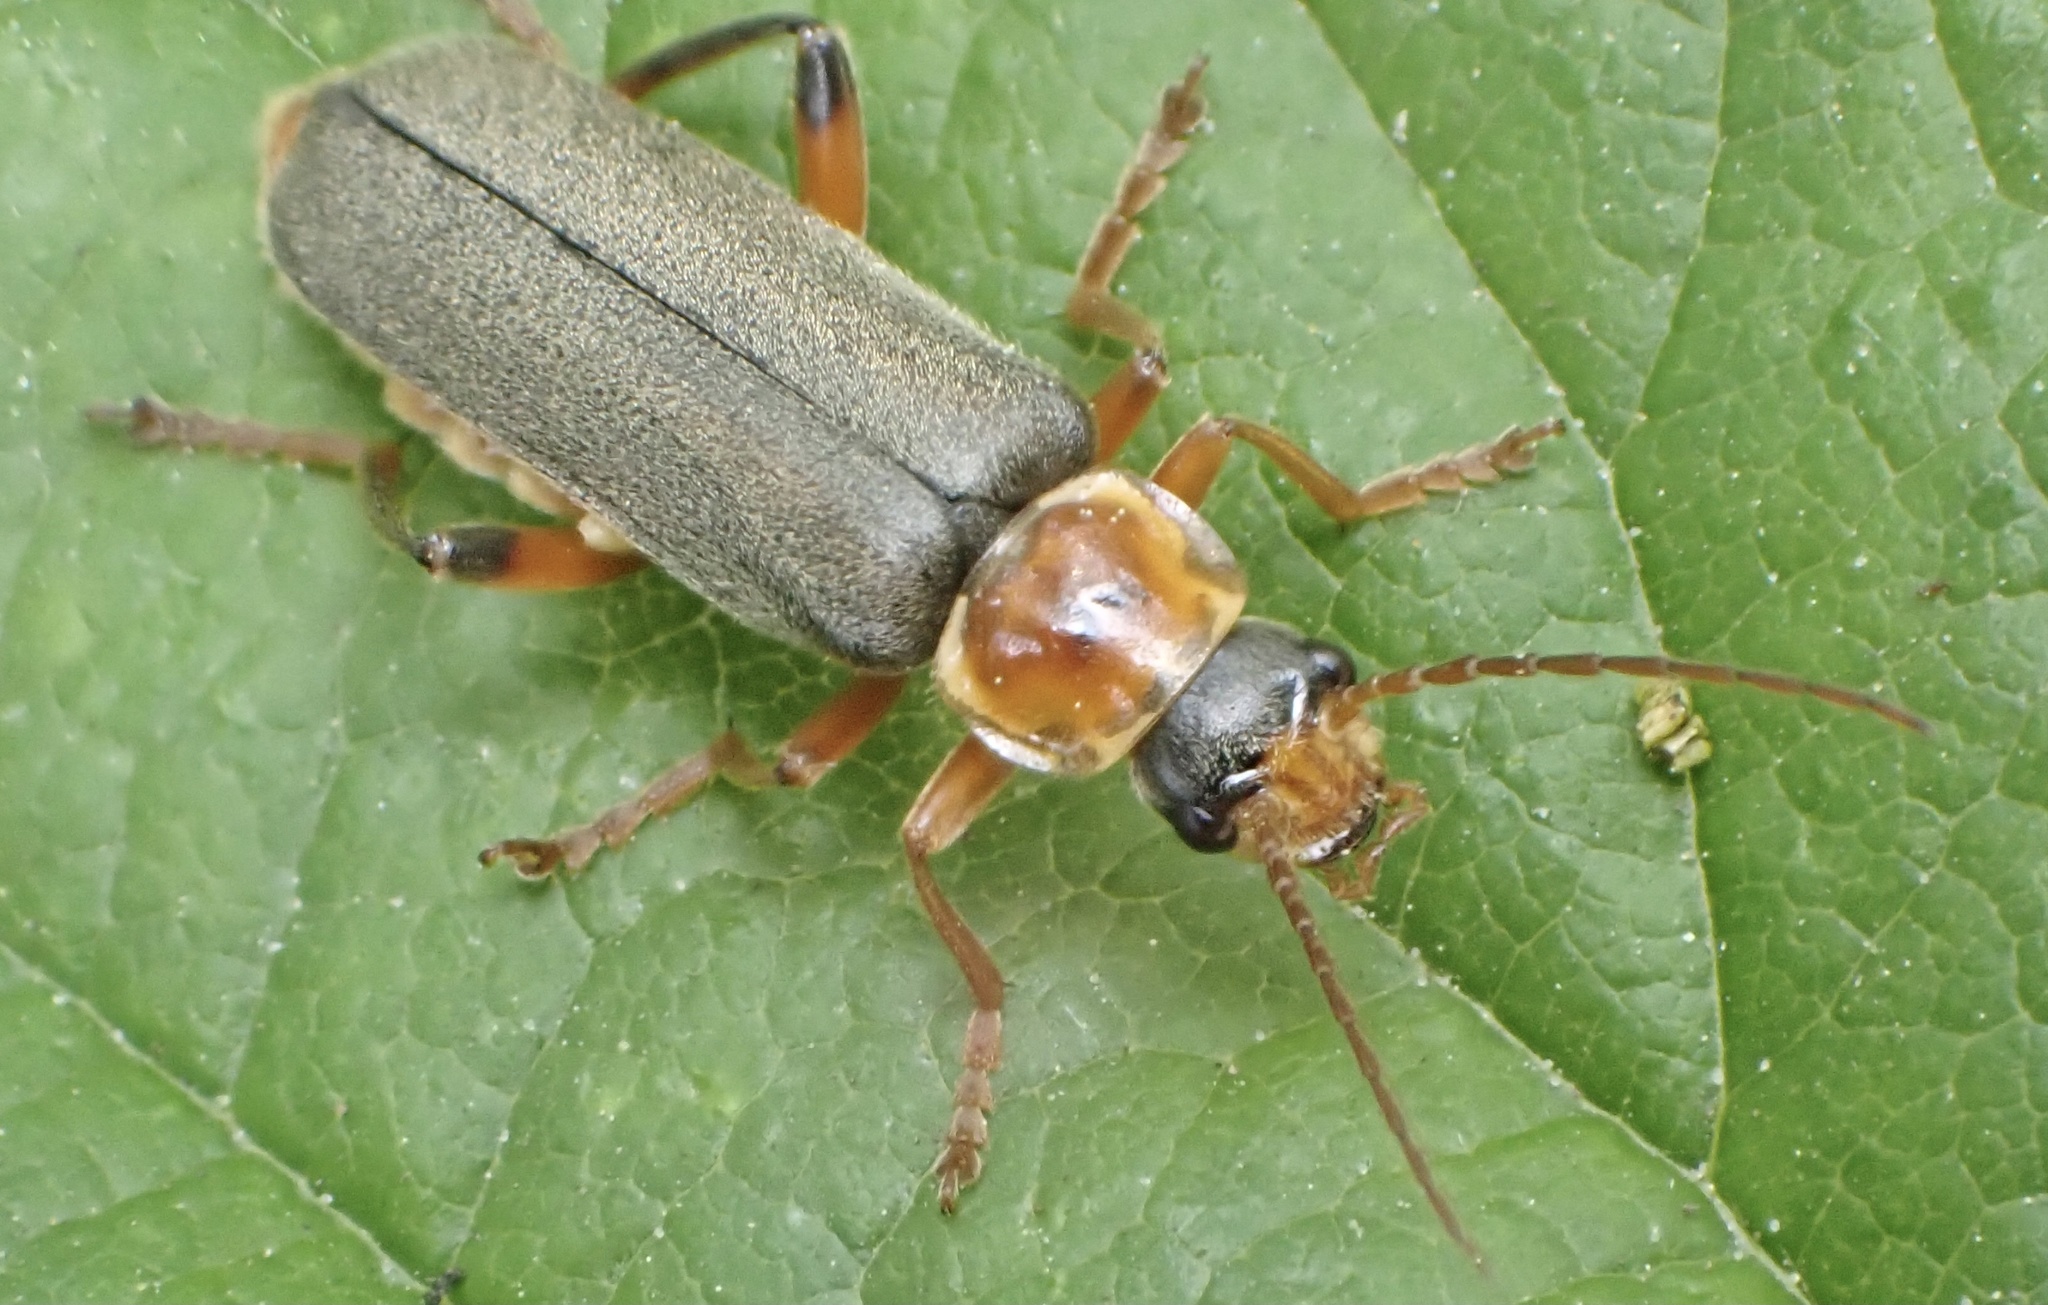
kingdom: Animalia
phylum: Arthropoda
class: Insecta
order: Coleoptera
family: Cantharidae
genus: Cantharis
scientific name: Cantharis nigricans
